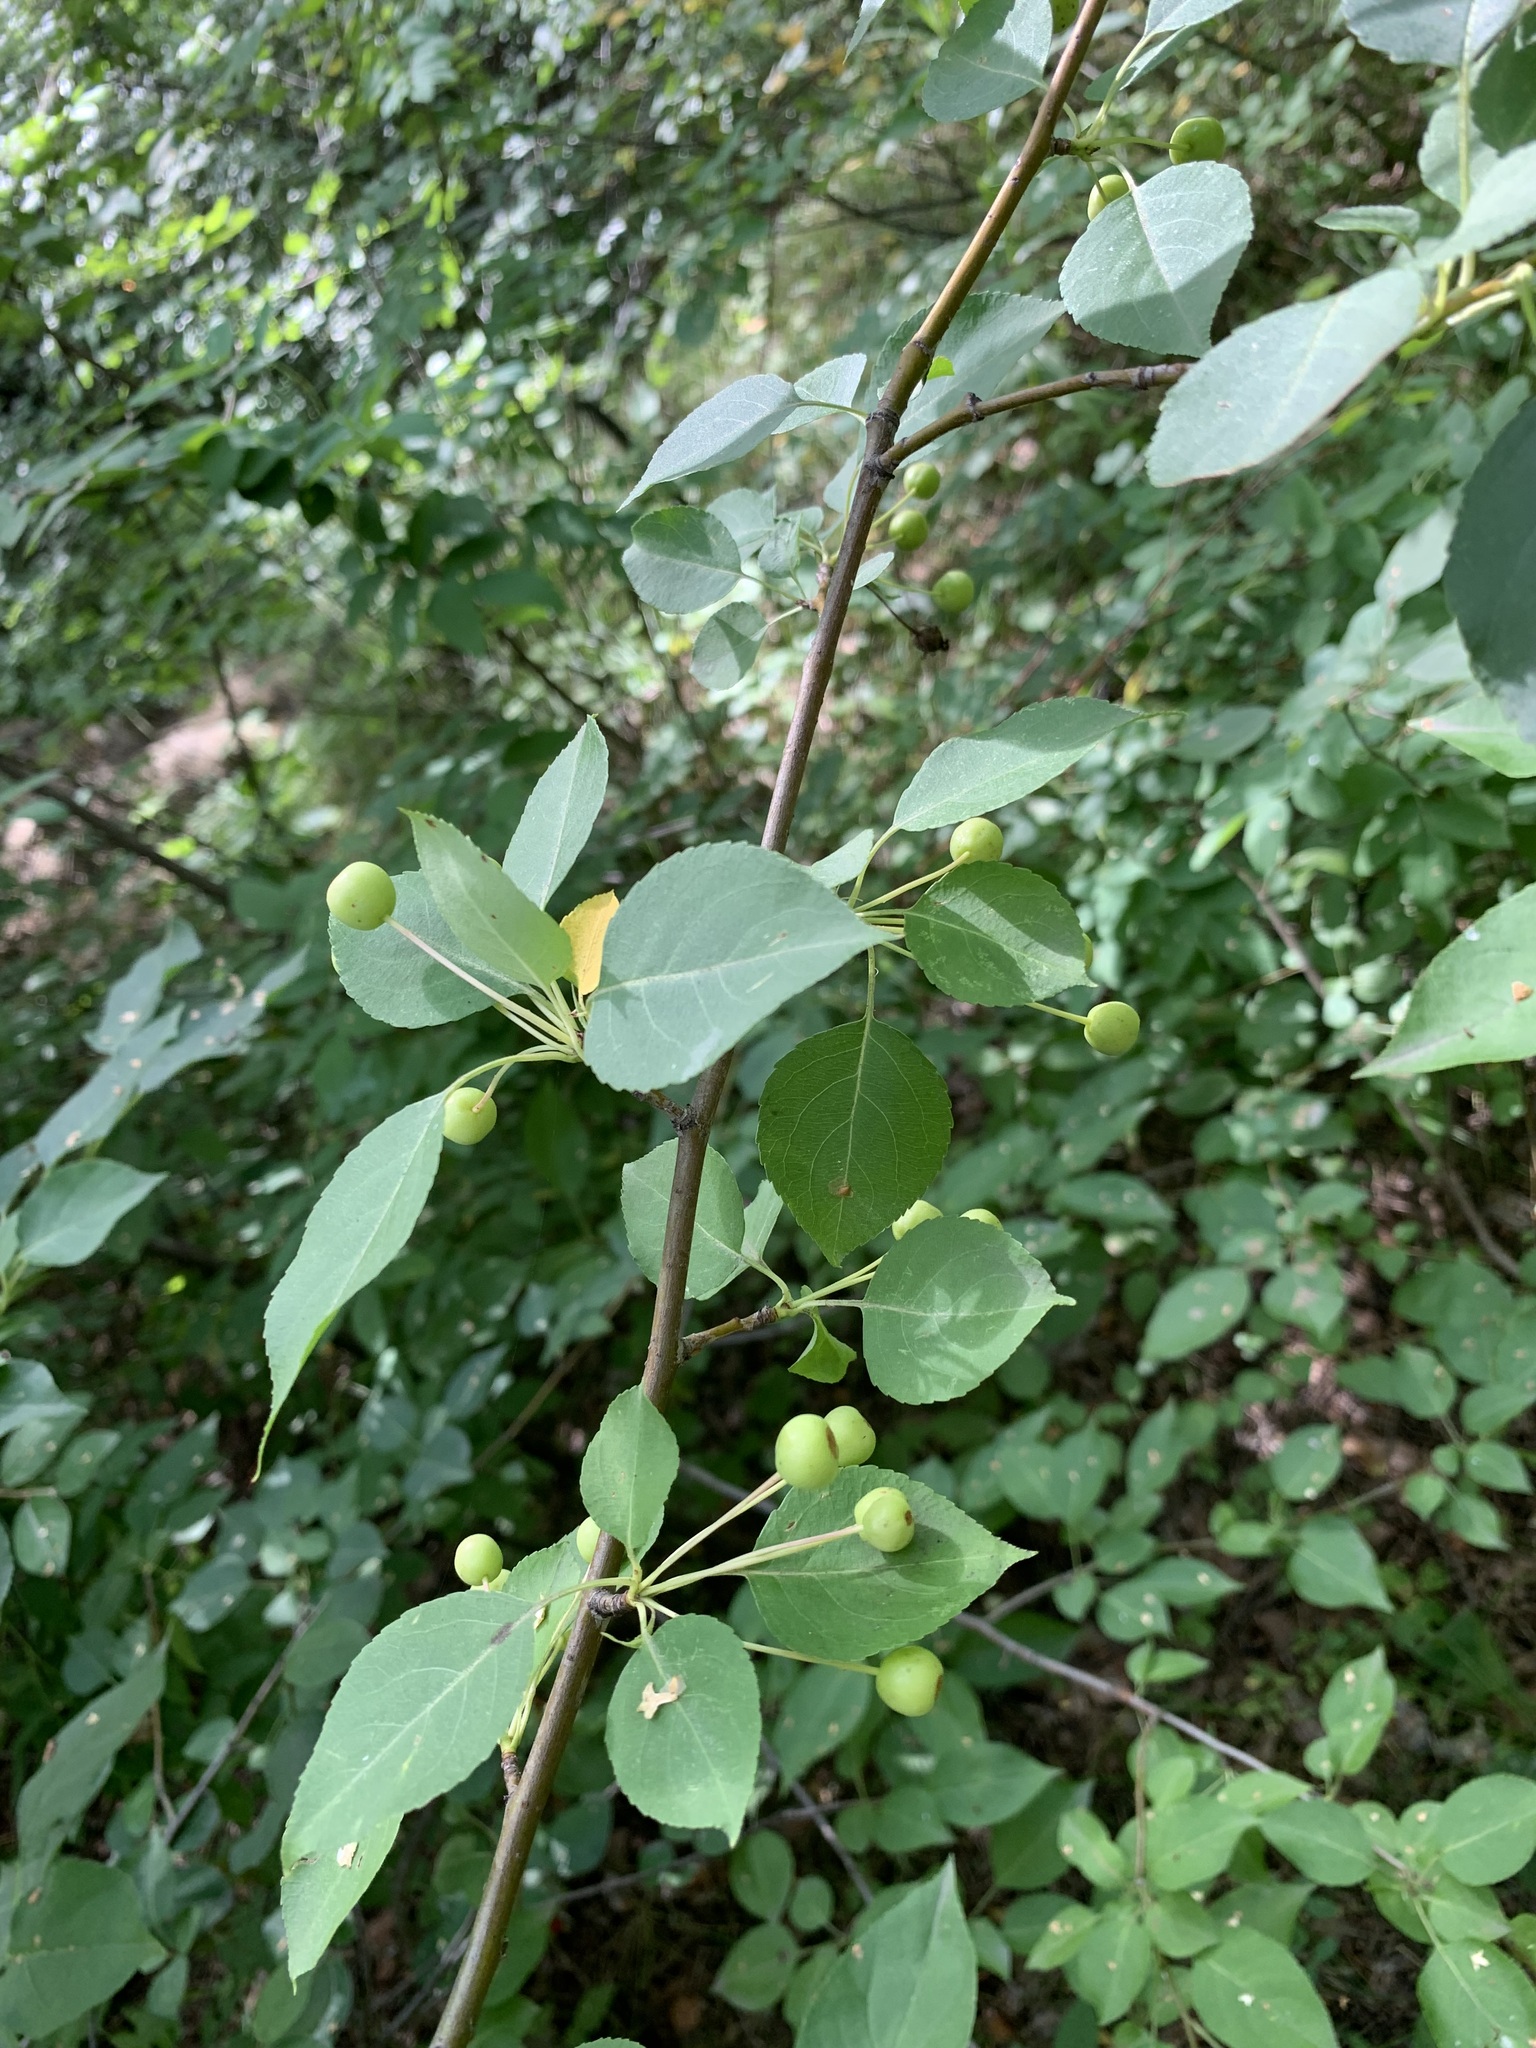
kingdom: Plantae
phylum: Tracheophyta
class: Magnoliopsida
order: Rosales
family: Rosaceae
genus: Malus
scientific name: Malus baccata
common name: Siberian crab
